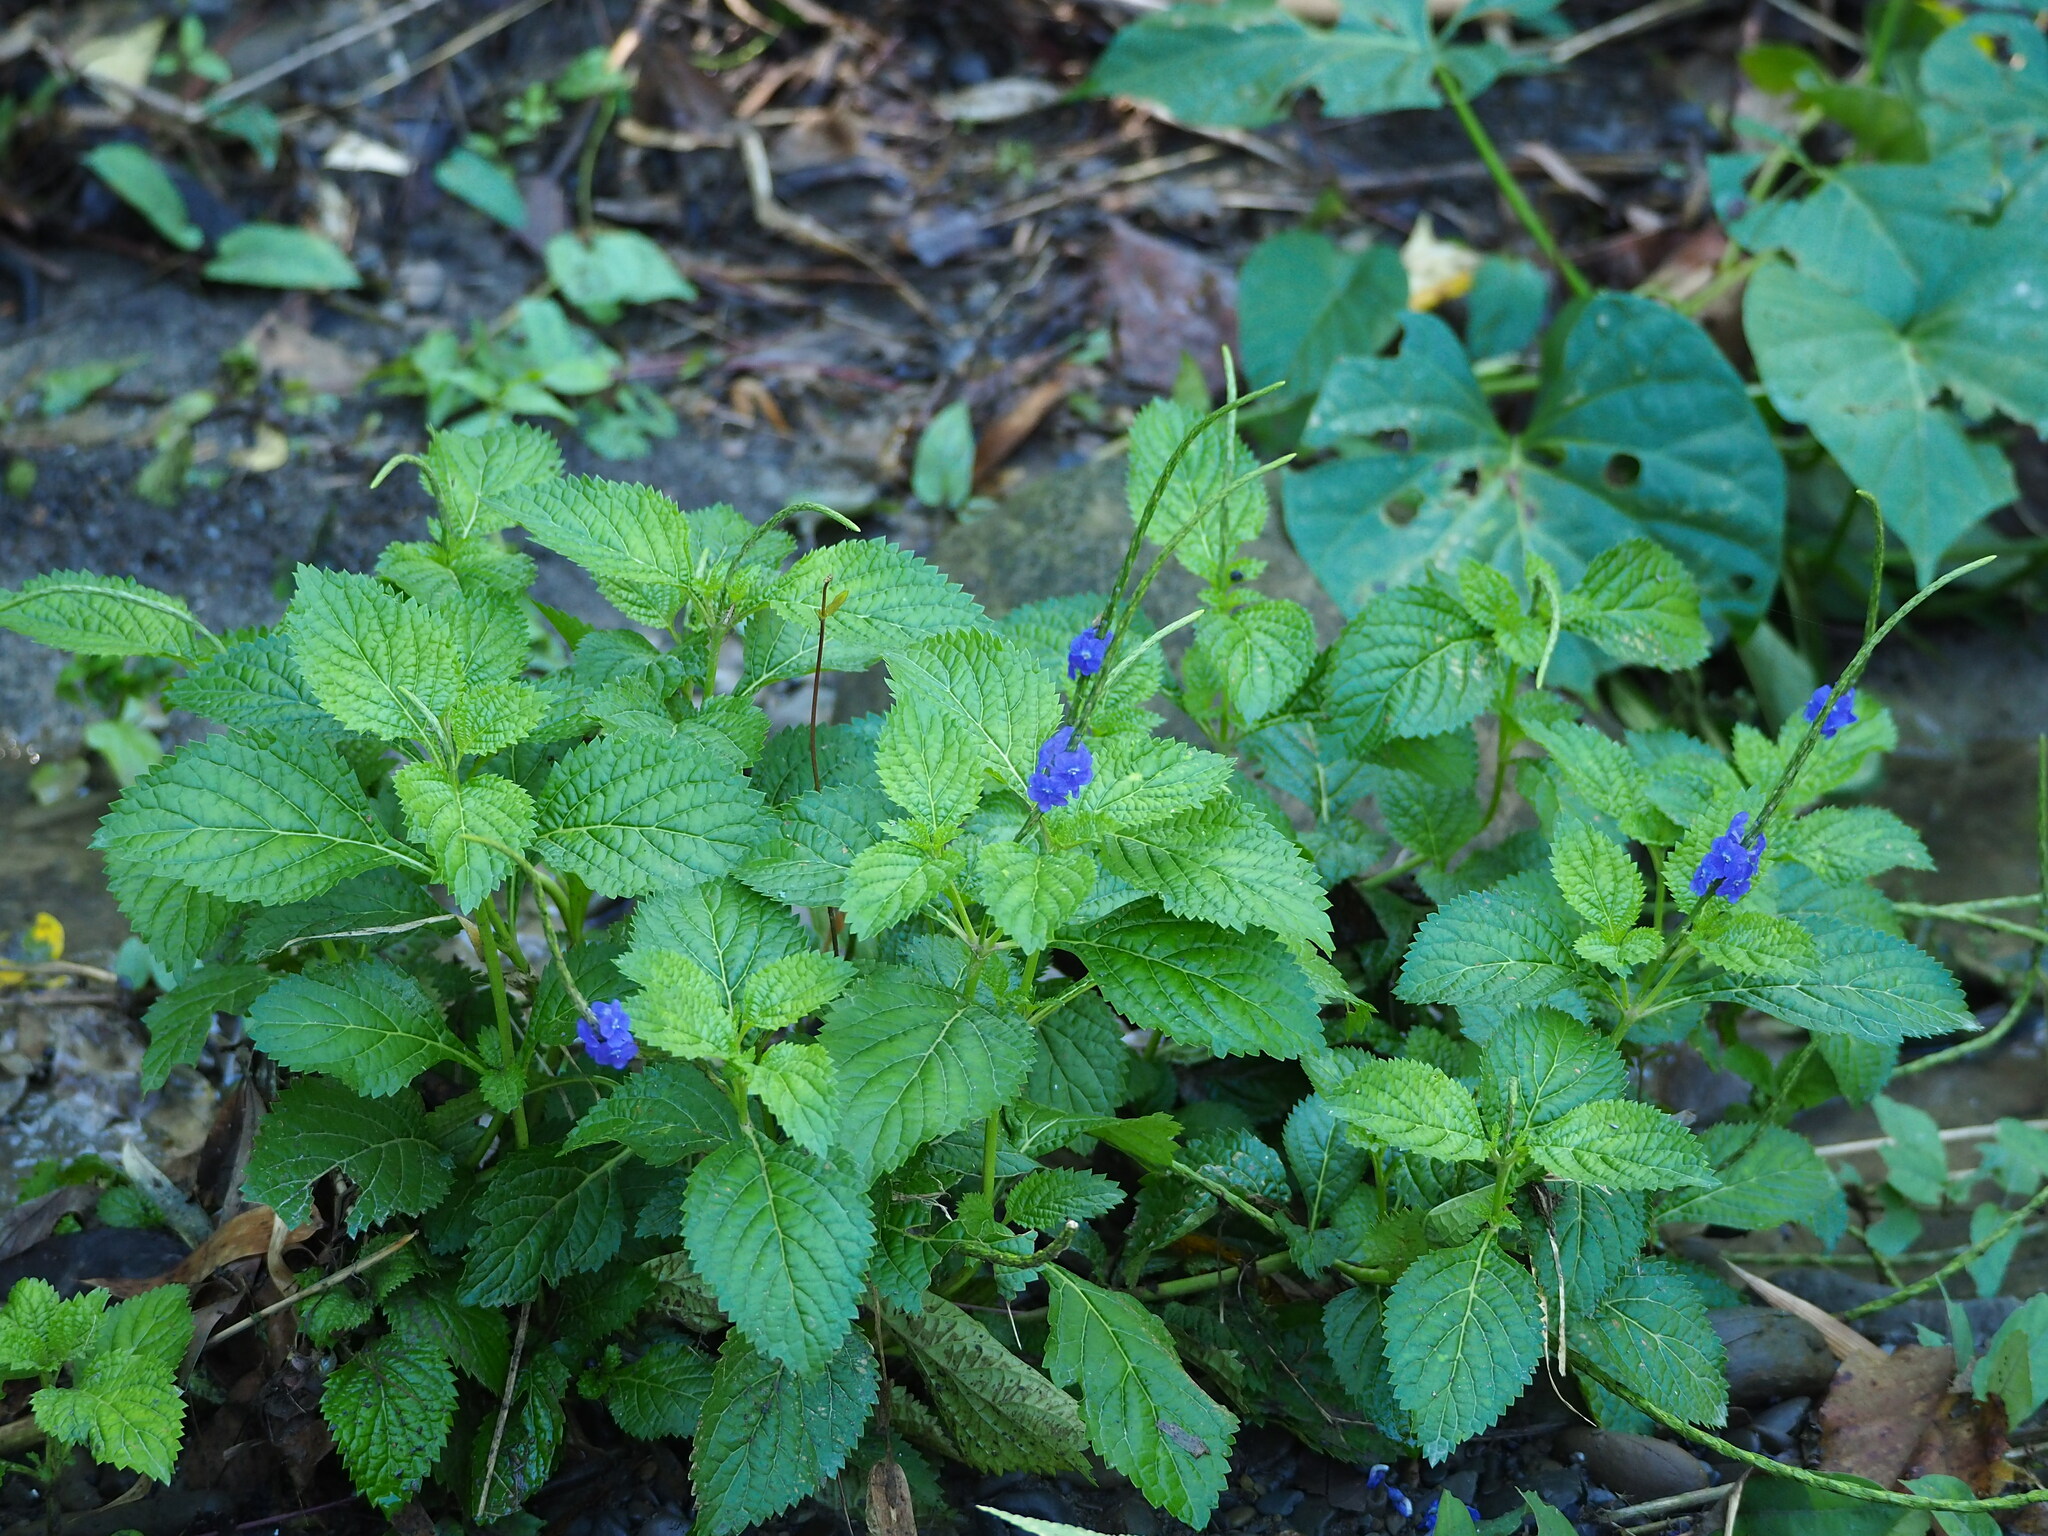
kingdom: Plantae
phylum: Tracheophyta
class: Magnoliopsida
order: Lamiales
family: Verbenaceae
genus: Stachytarpheta
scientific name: Stachytarpheta urticifolia
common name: Nettleleaf velvetberry
